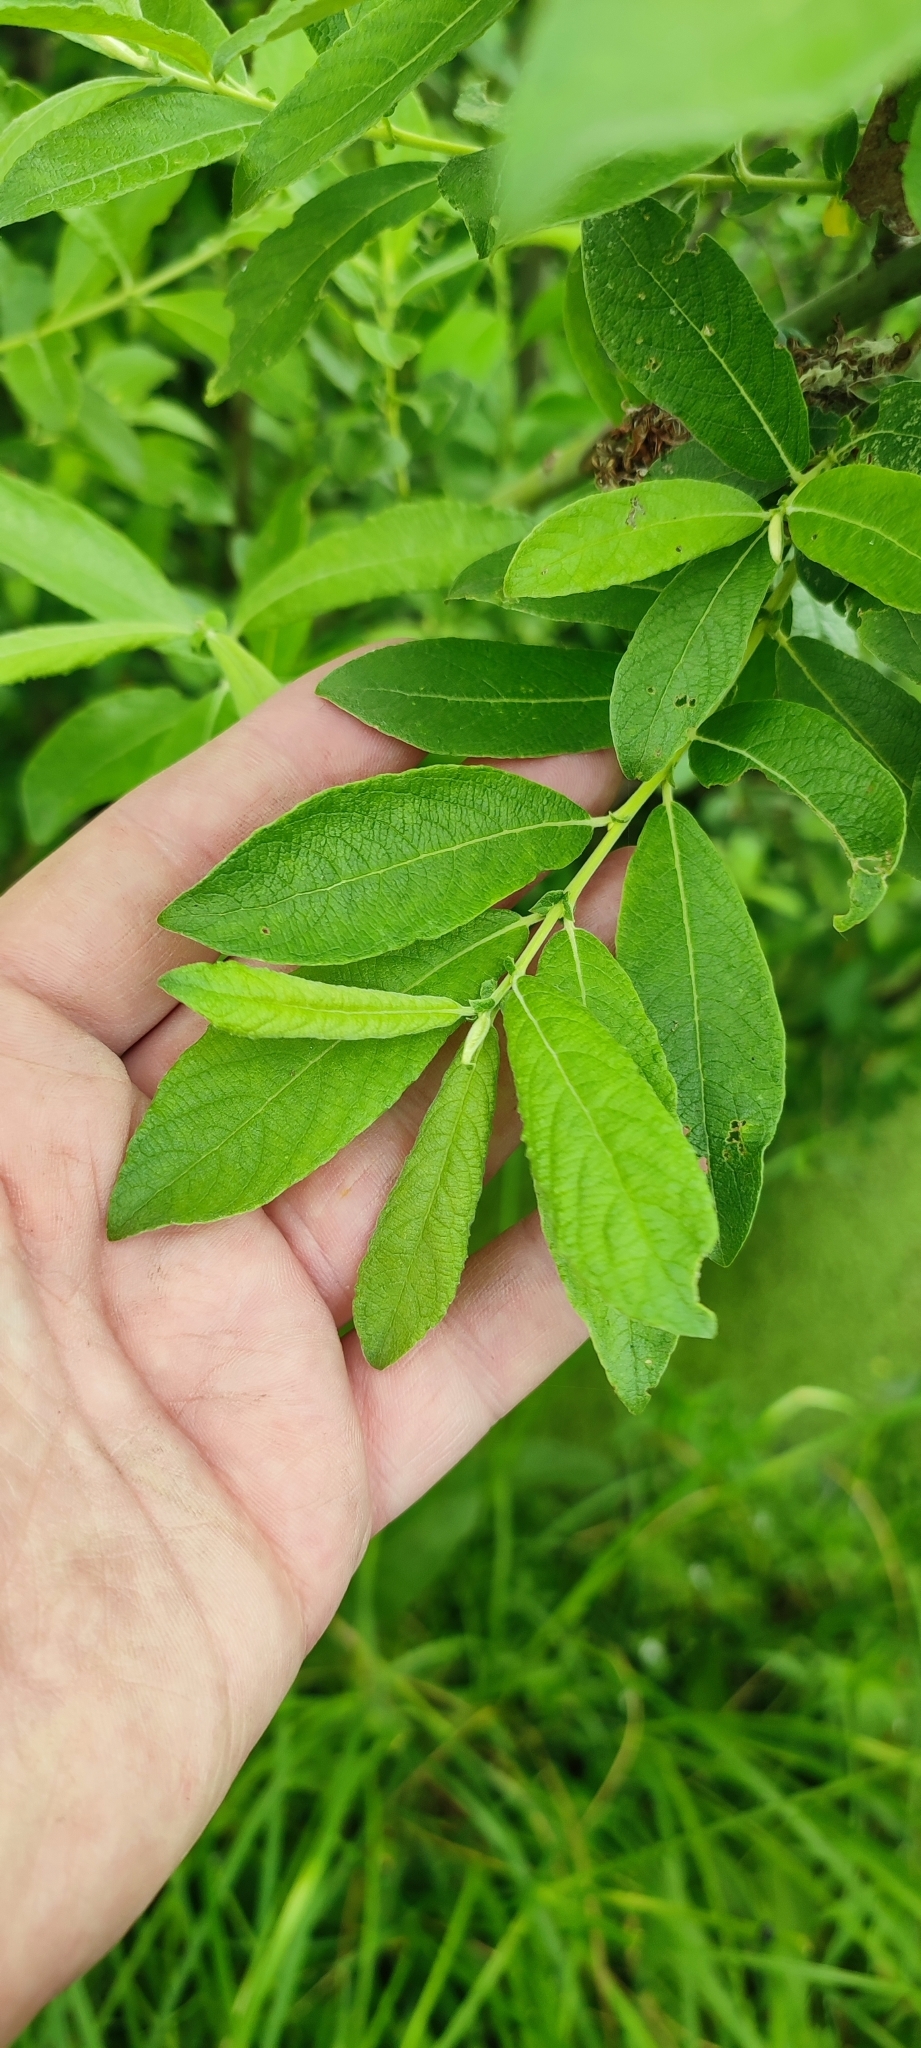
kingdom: Plantae
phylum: Tracheophyta
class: Magnoliopsida
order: Malpighiales
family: Salicaceae
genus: Salix
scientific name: Salix cinerea
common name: Common sallow
